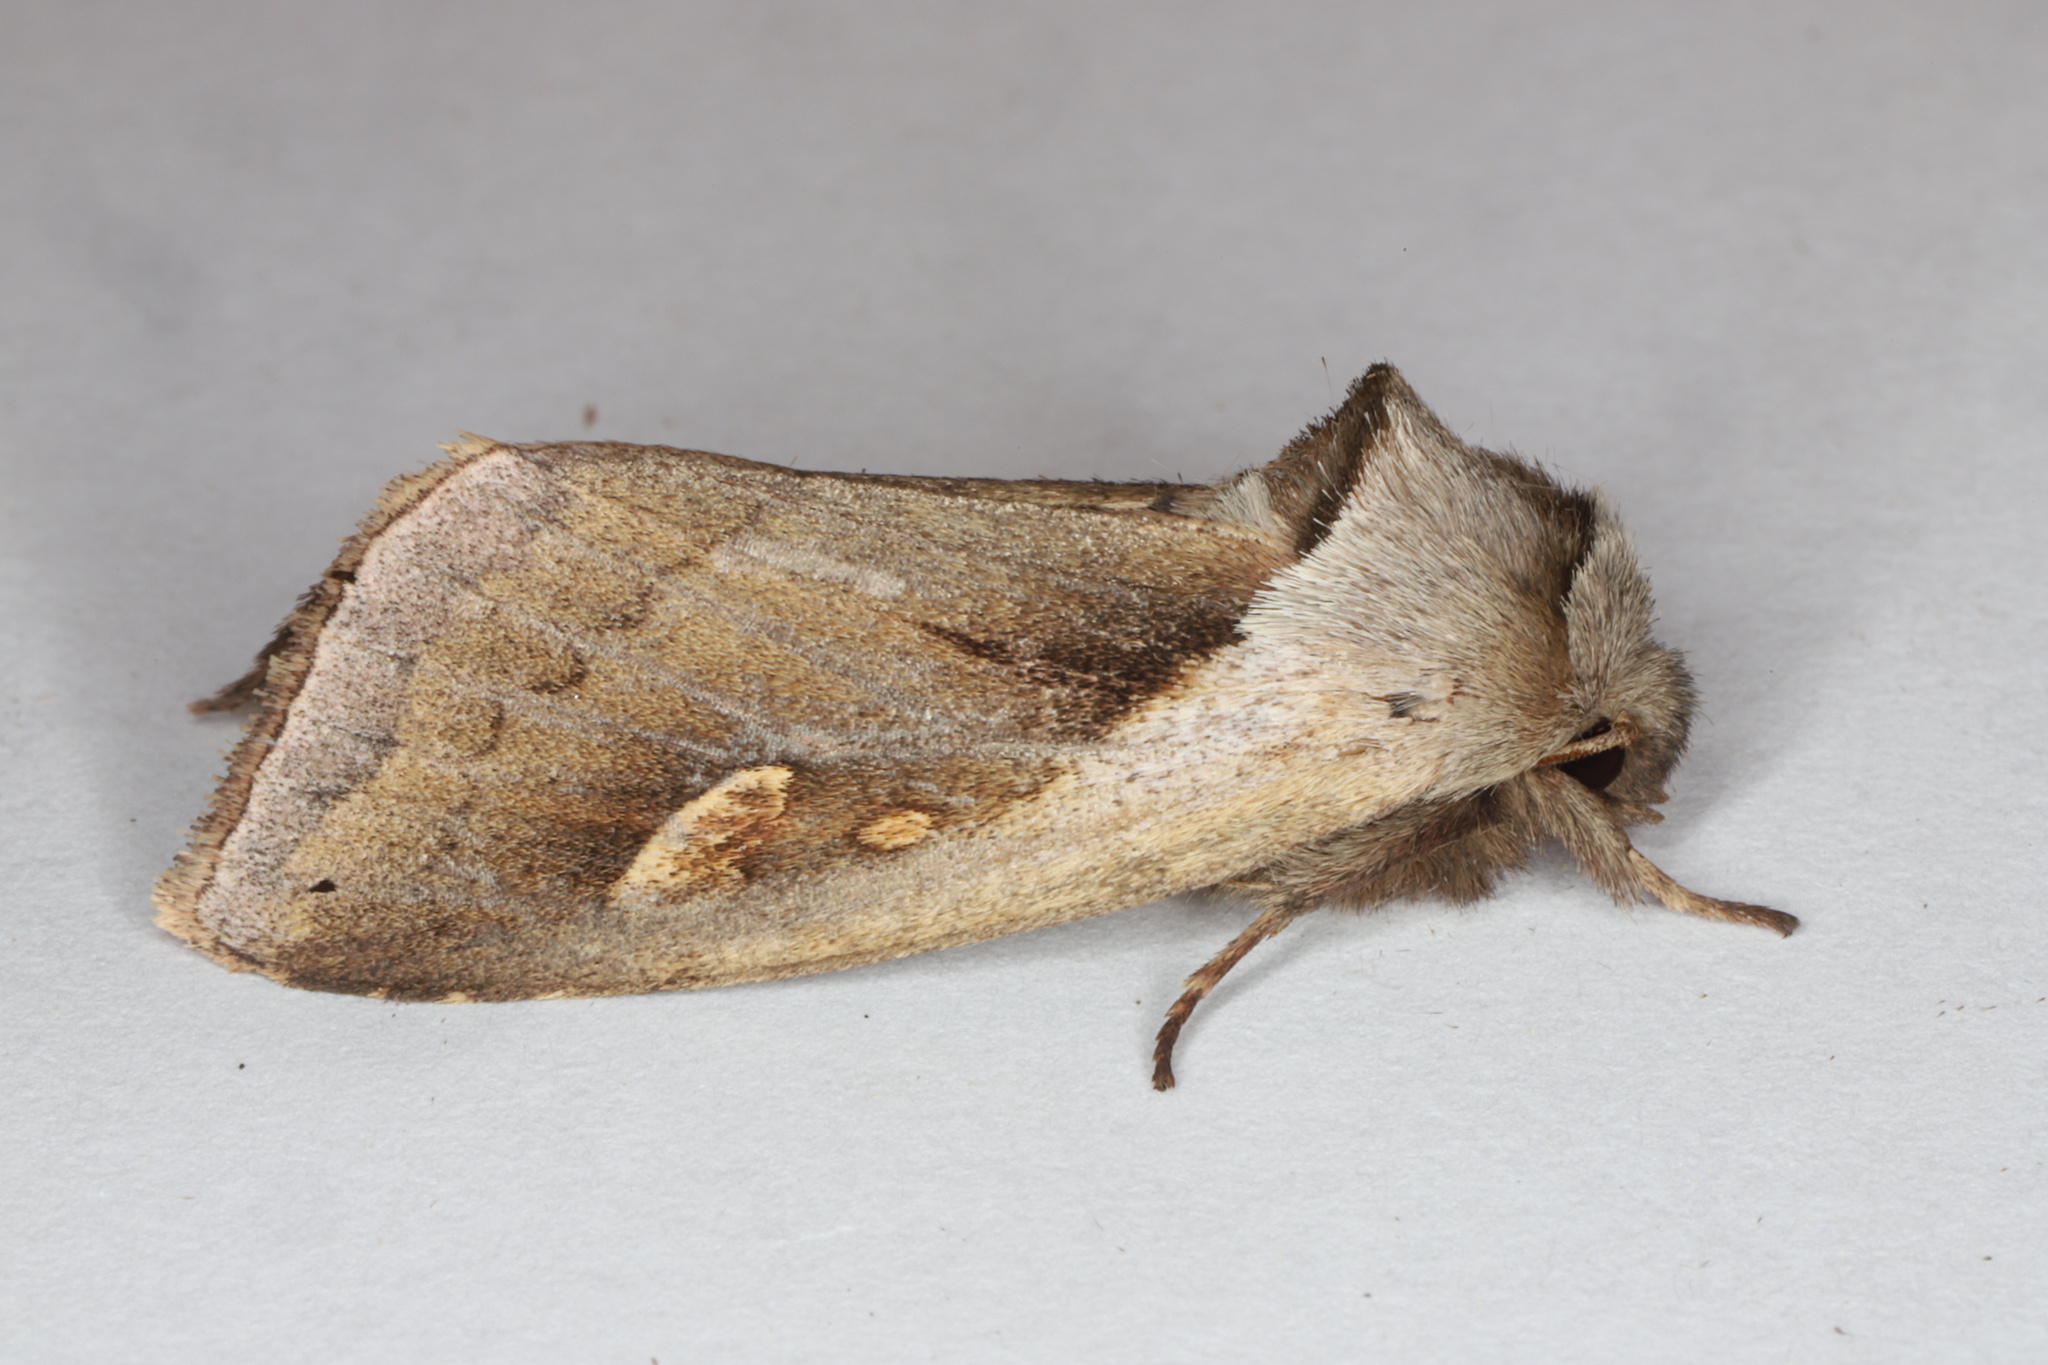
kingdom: Animalia
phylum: Arthropoda
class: Insecta
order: Lepidoptera
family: Noctuidae
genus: Bellura
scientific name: Bellura obliqua
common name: Cattail borer moth
